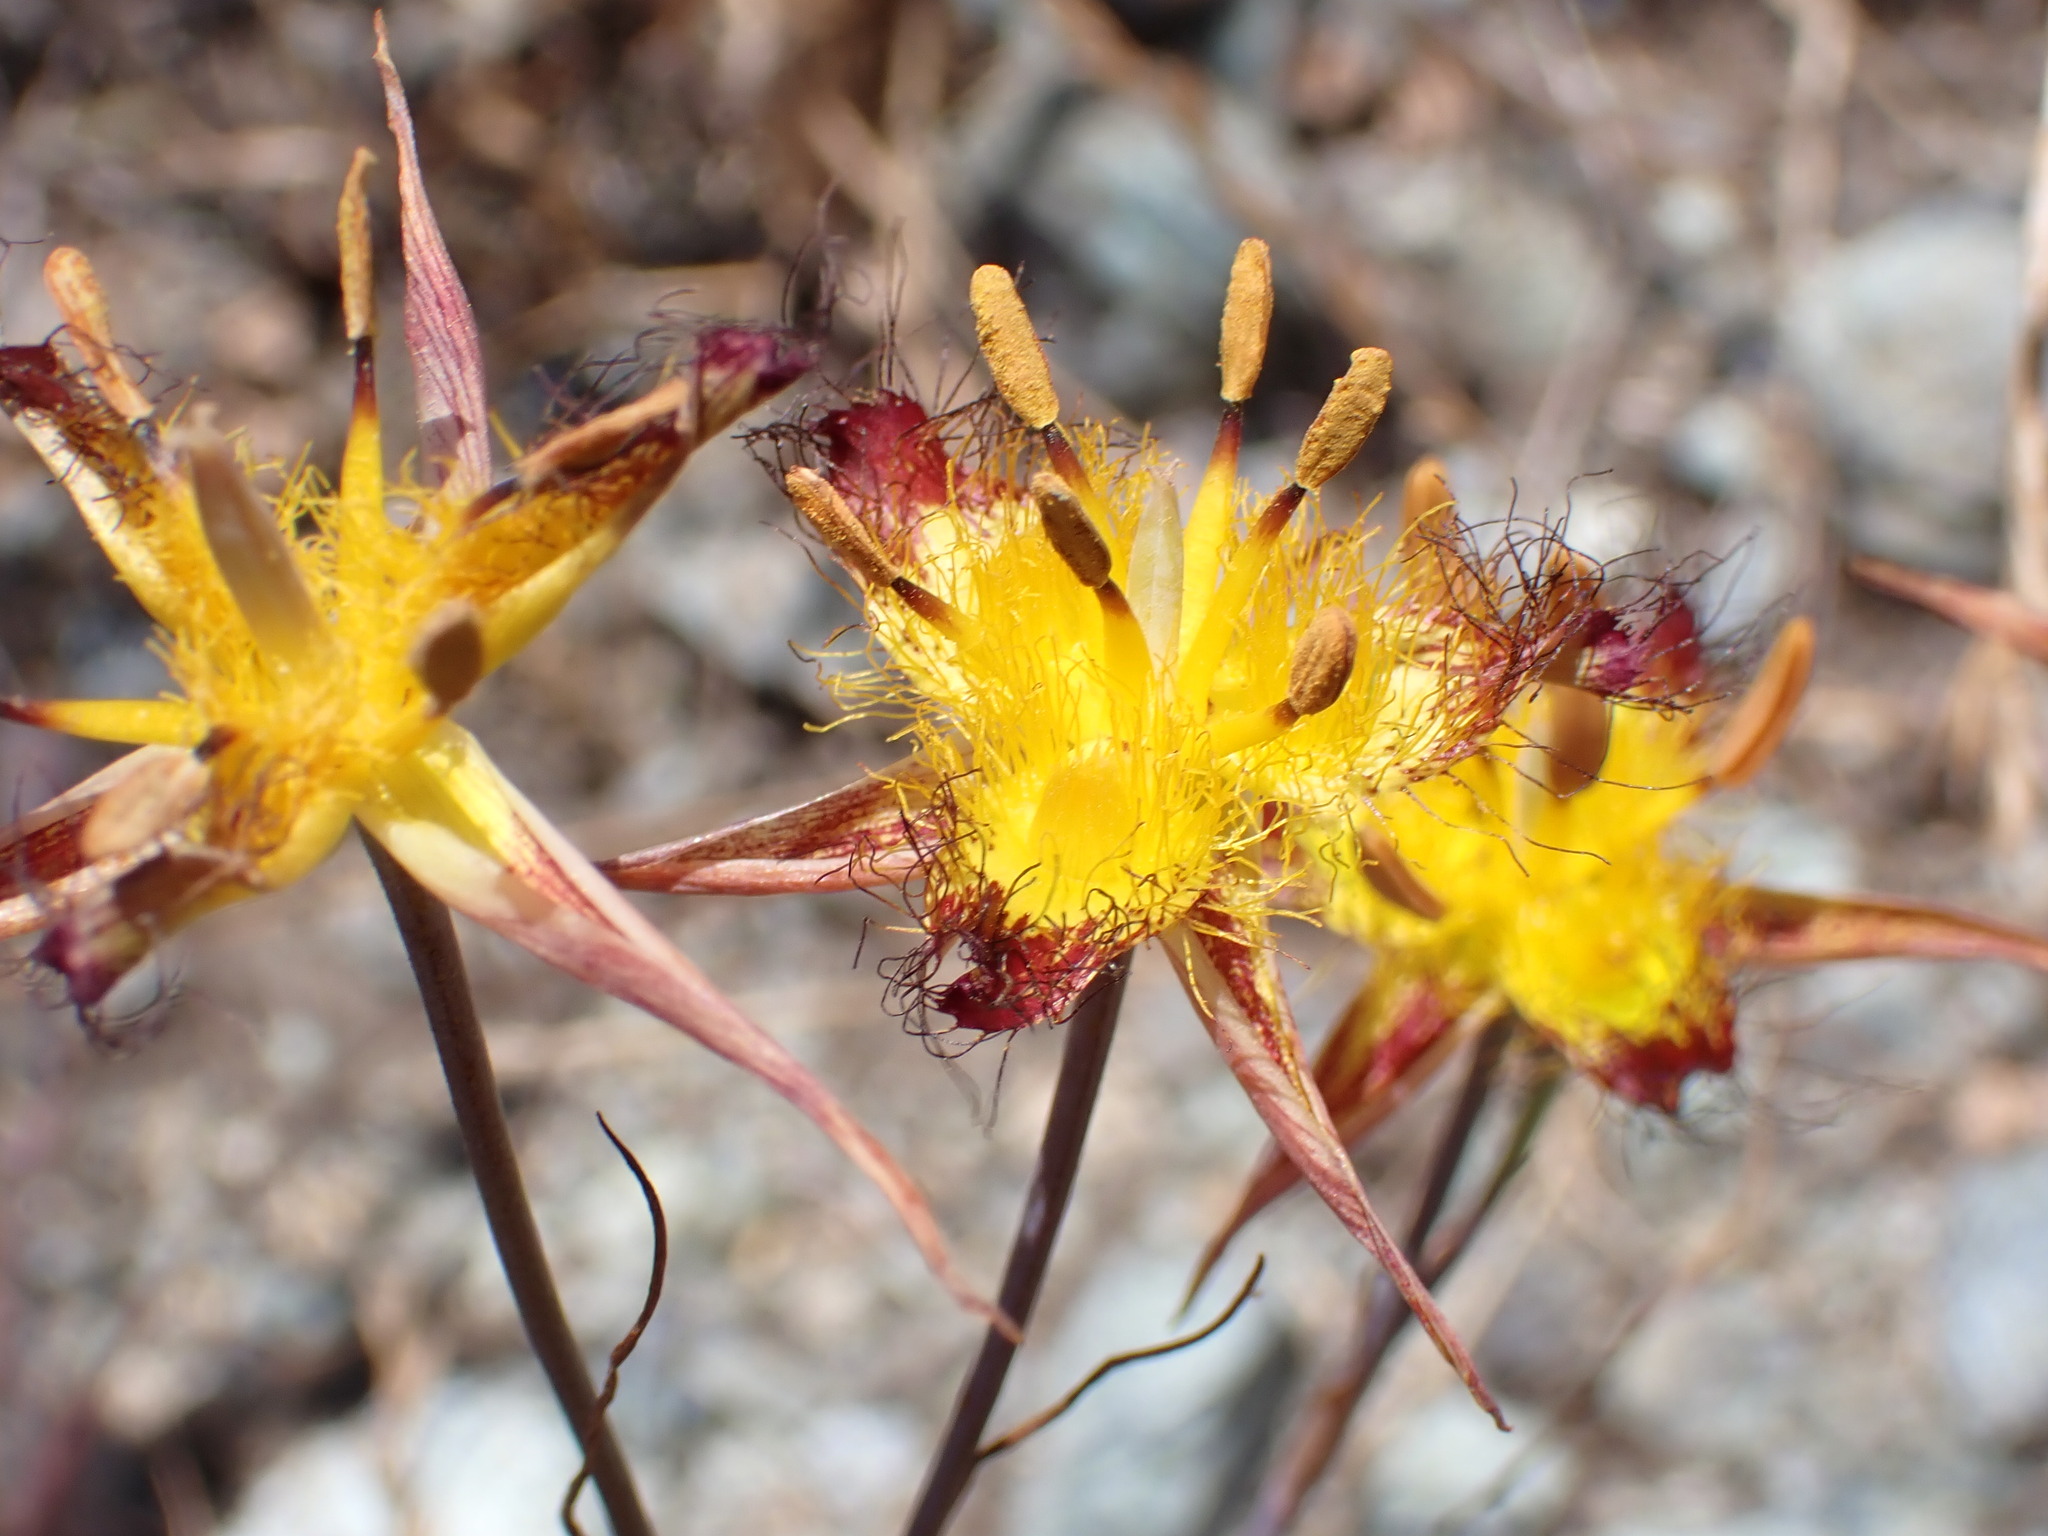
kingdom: Plantae
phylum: Tracheophyta
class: Liliopsida
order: Liliales
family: Liliaceae
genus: Calochortus
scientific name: Calochortus obispoensis
